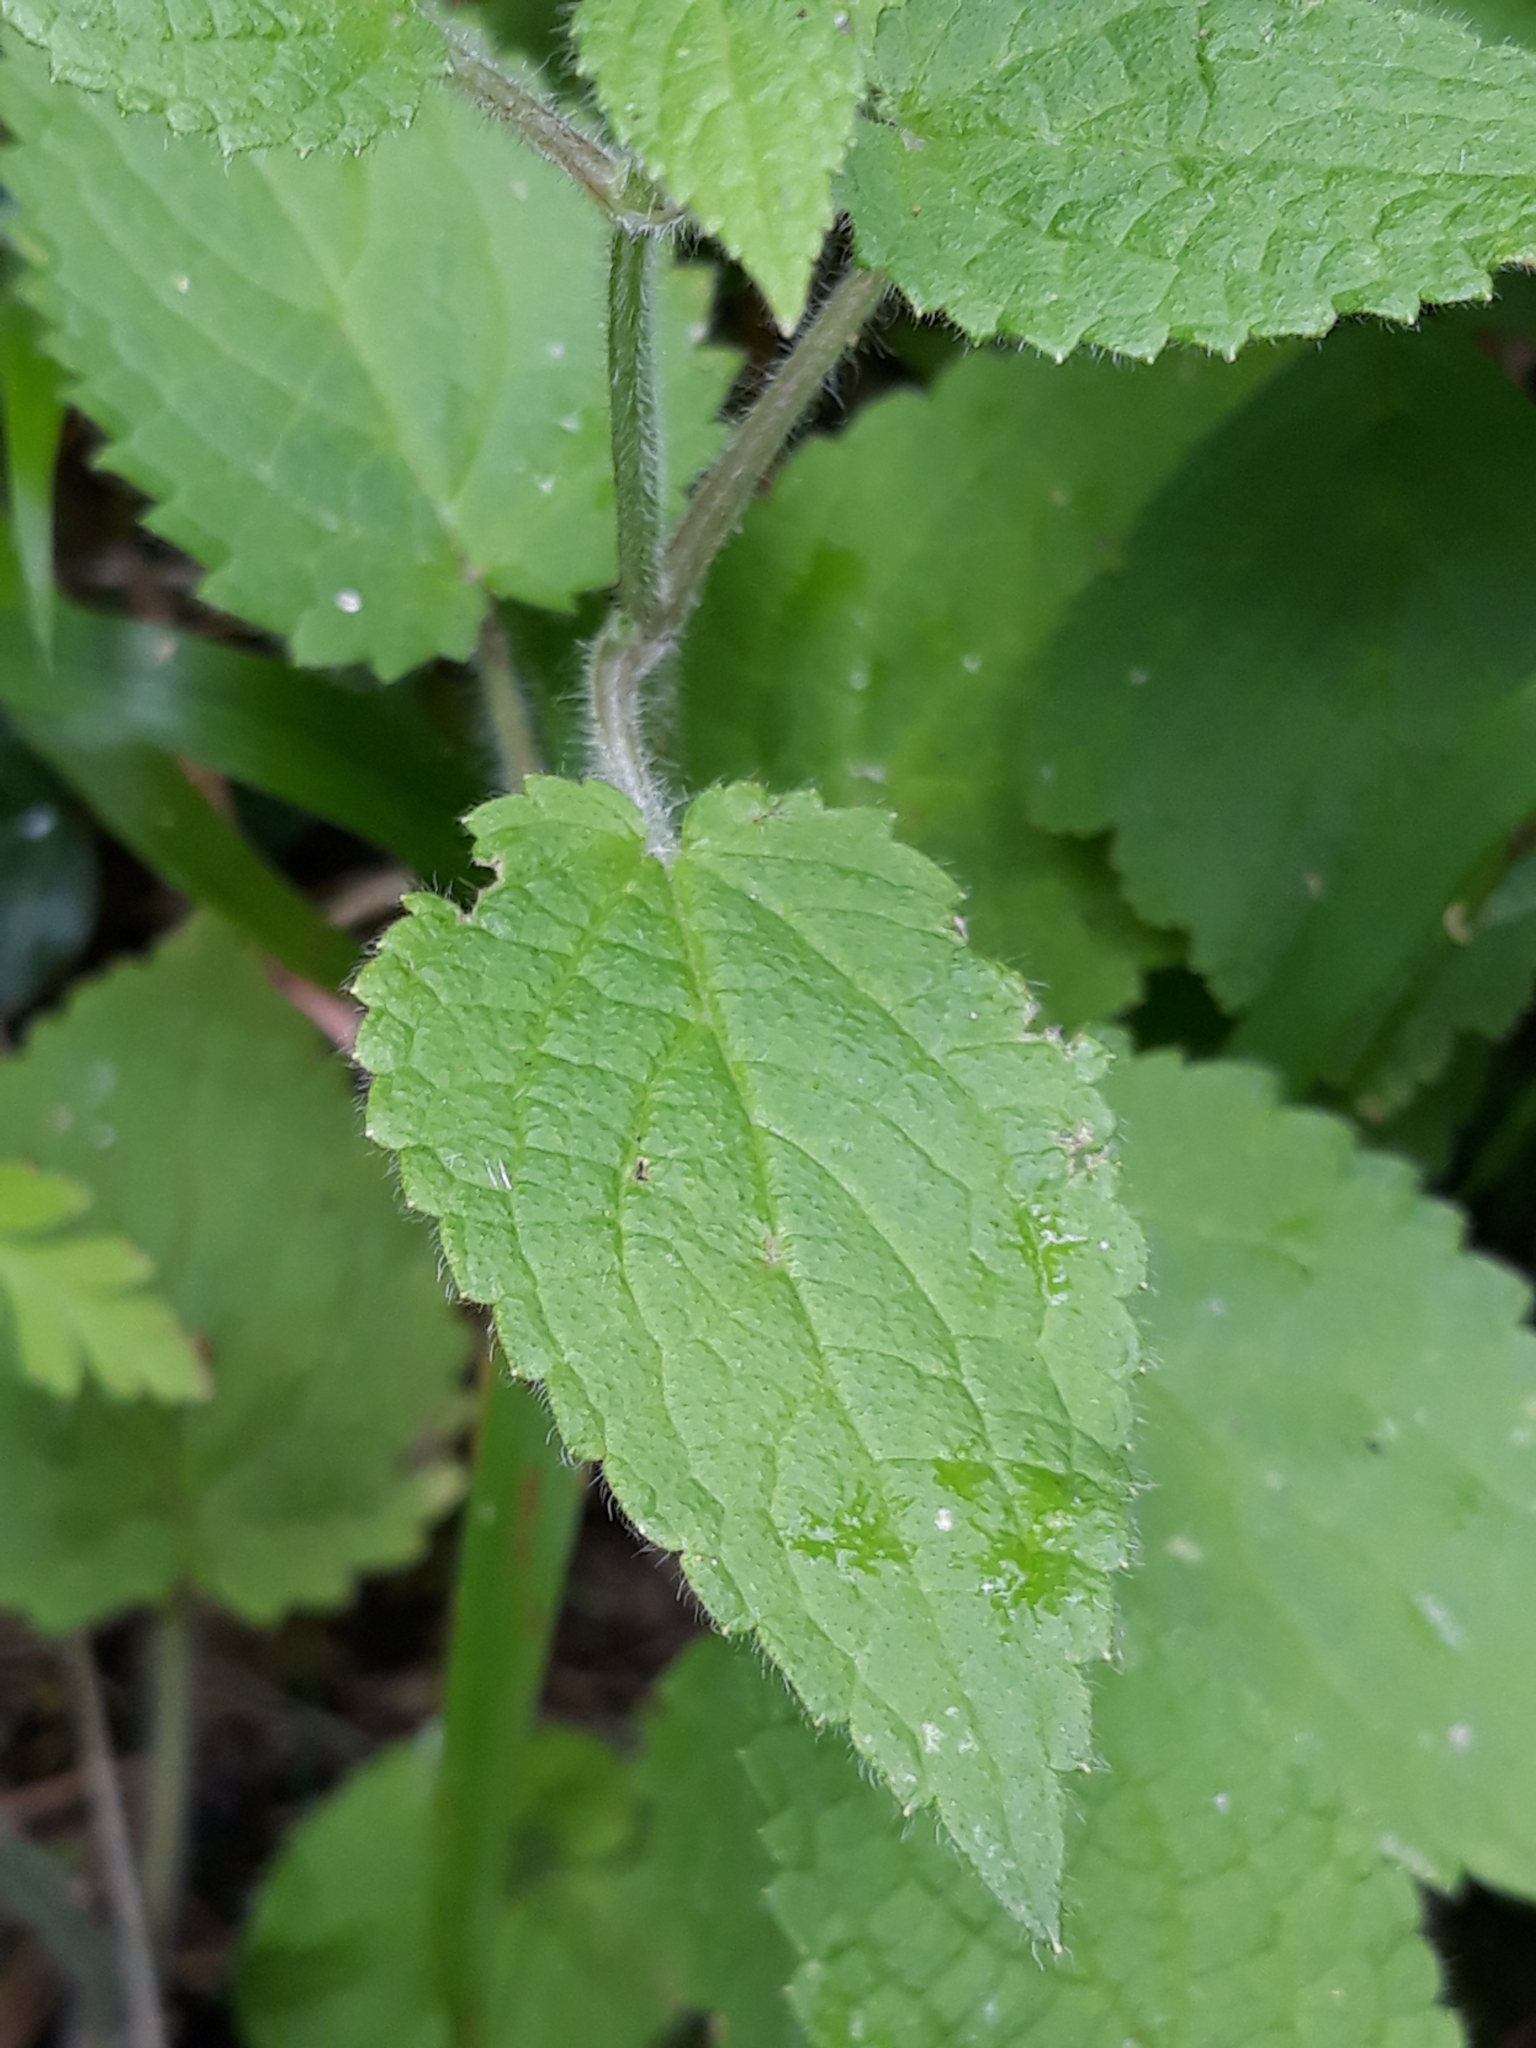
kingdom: Plantae
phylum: Tracheophyta
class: Magnoliopsida
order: Lamiales
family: Lamiaceae
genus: Stachys
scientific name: Stachys sylvatica
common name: Hedge woundwort
